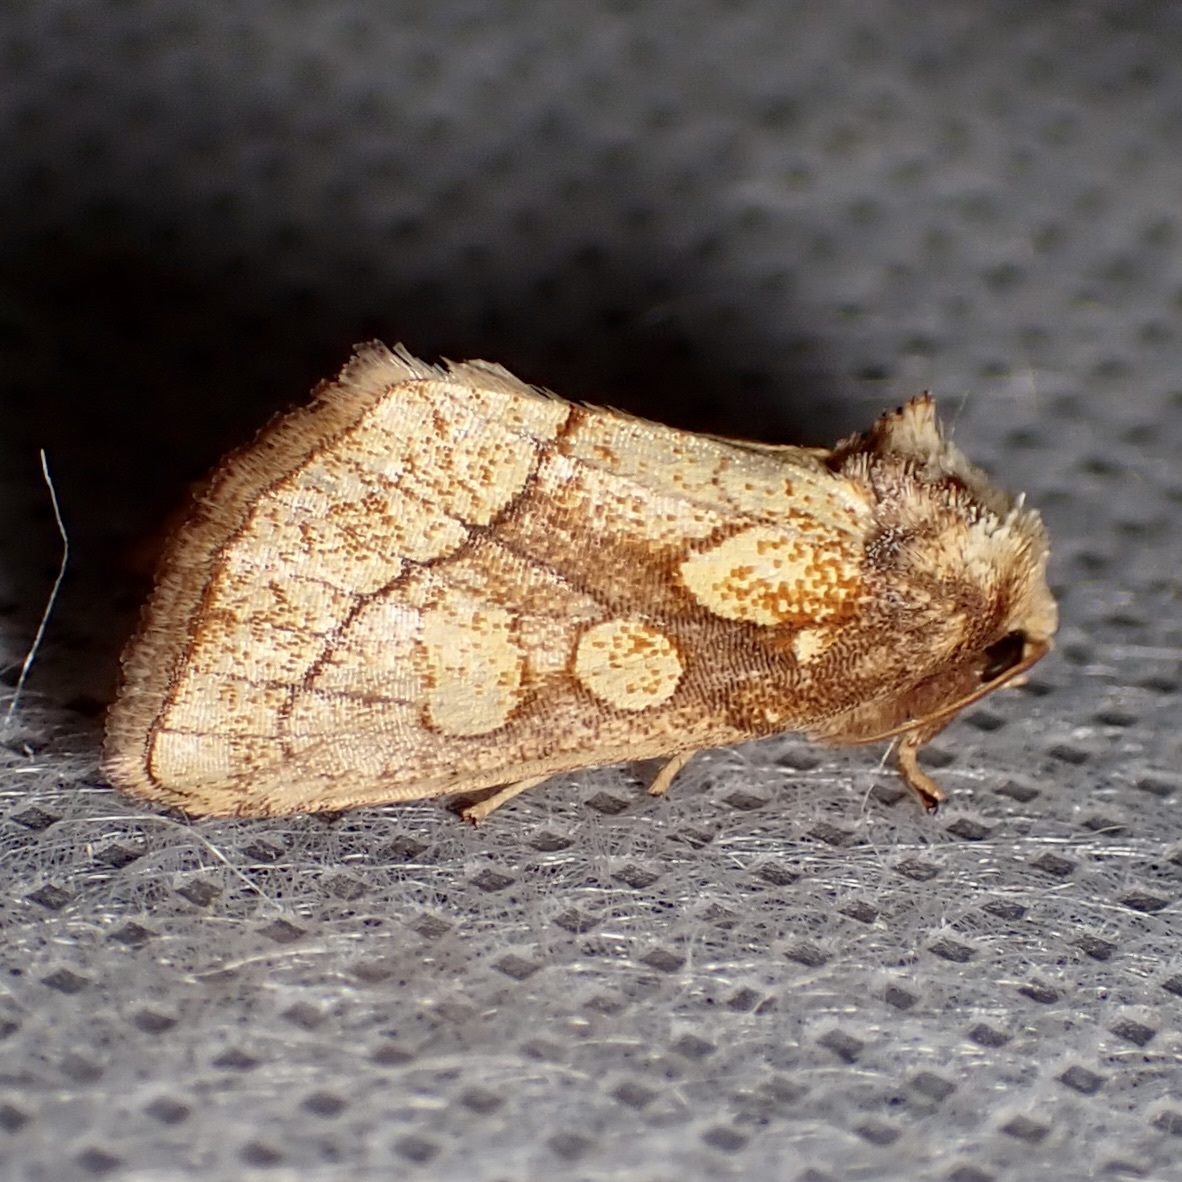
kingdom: Animalia
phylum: Arthropoda
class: Insecta
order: Lepidoptera
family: Noctuidae
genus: Nocloa
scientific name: Nocloa alcandra
